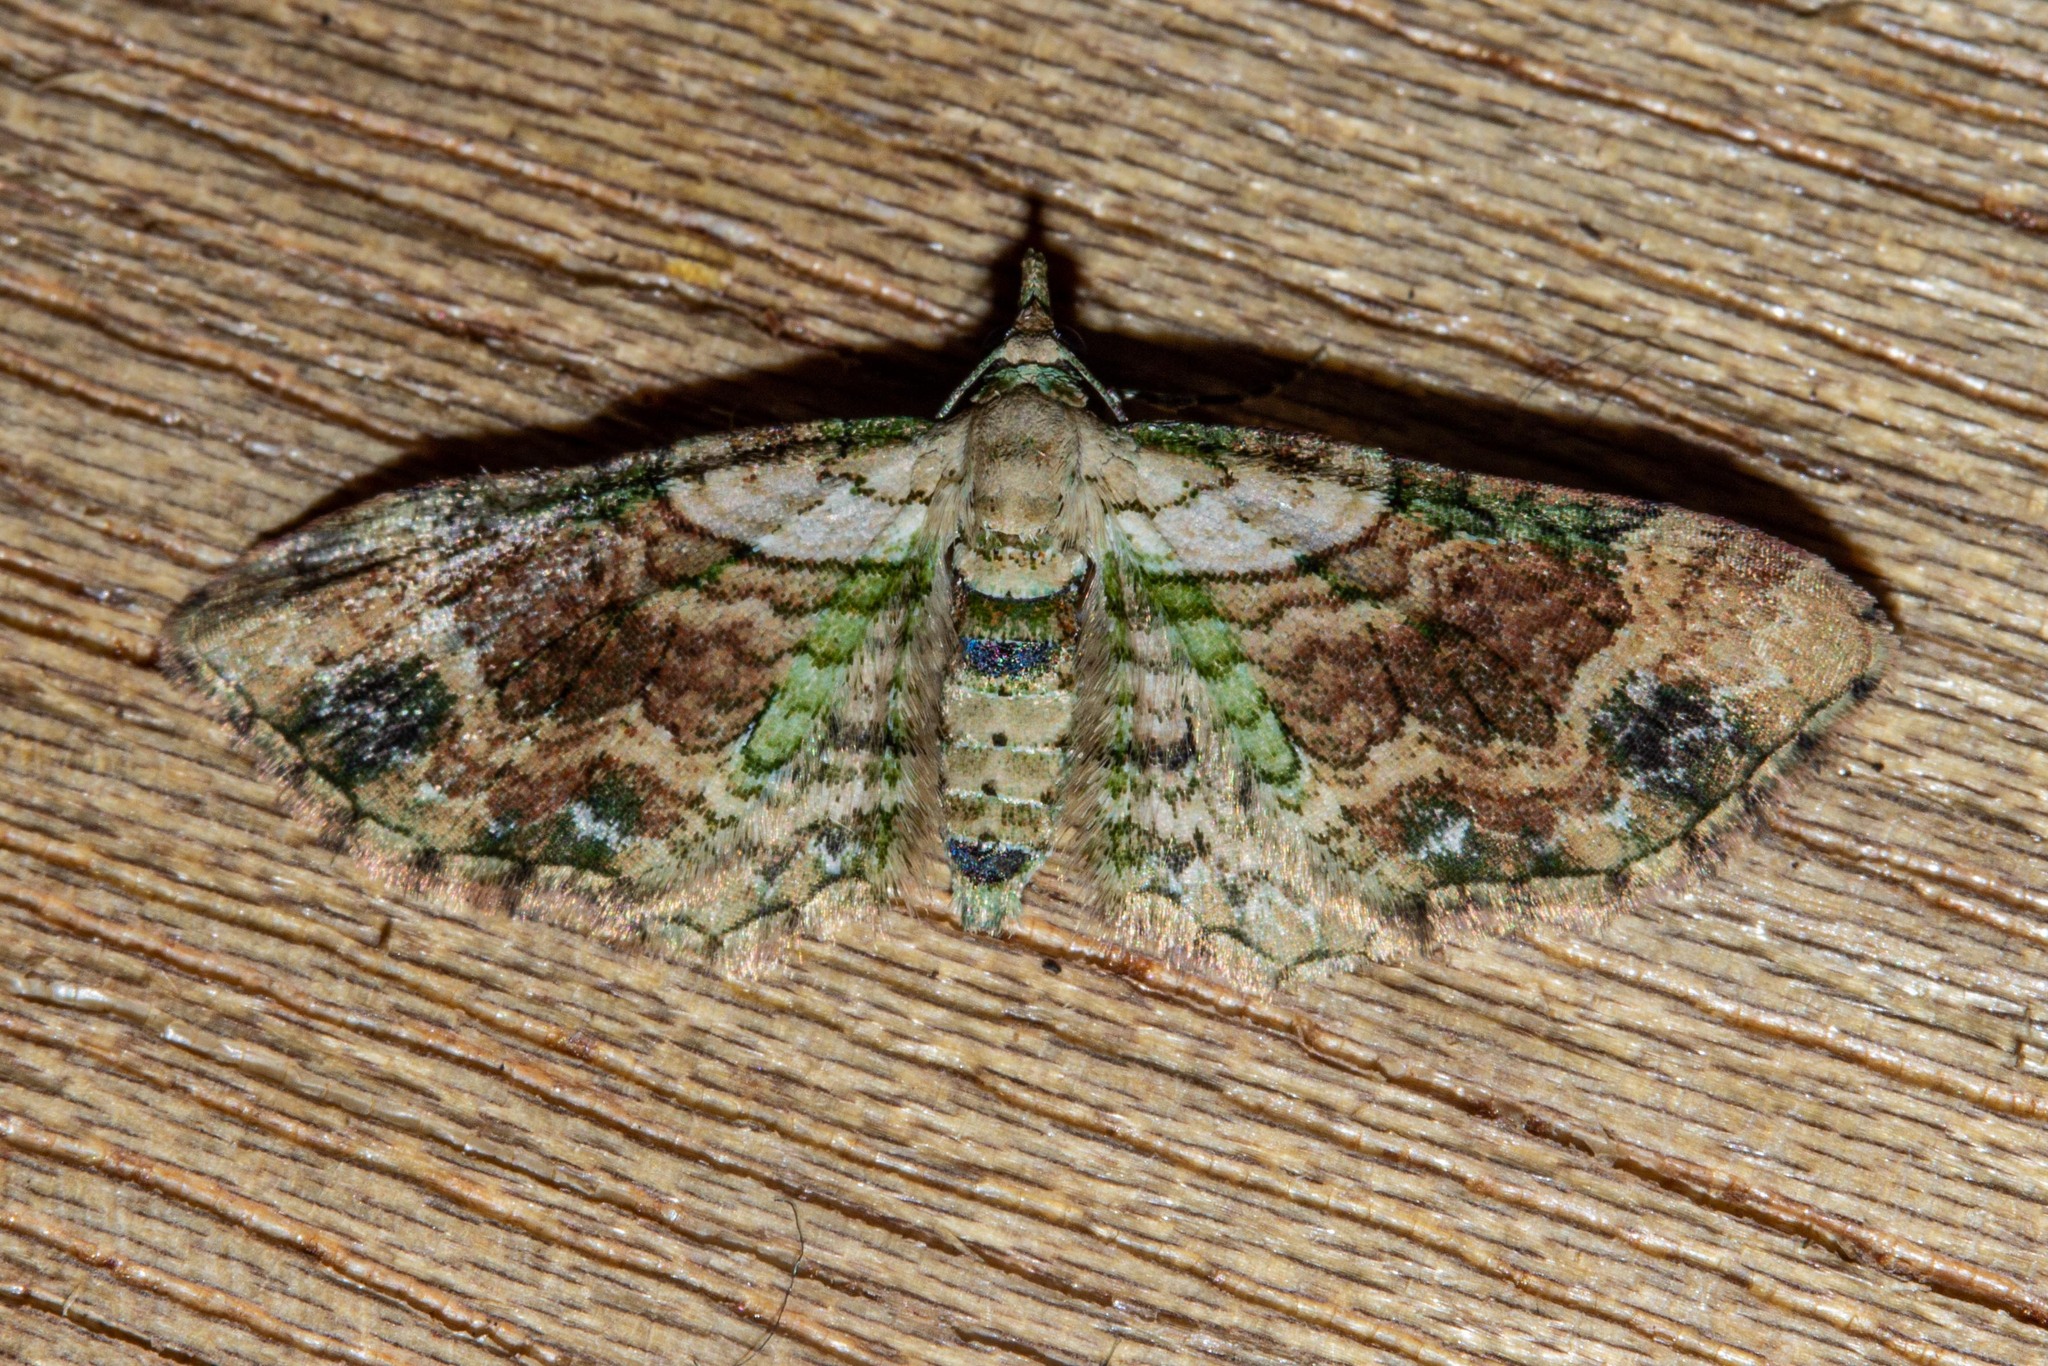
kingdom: Animalia
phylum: Arthropoda
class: Insecta
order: Lepidoptera
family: Geometridae
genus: Chloroclystis
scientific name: Chloroclystis
